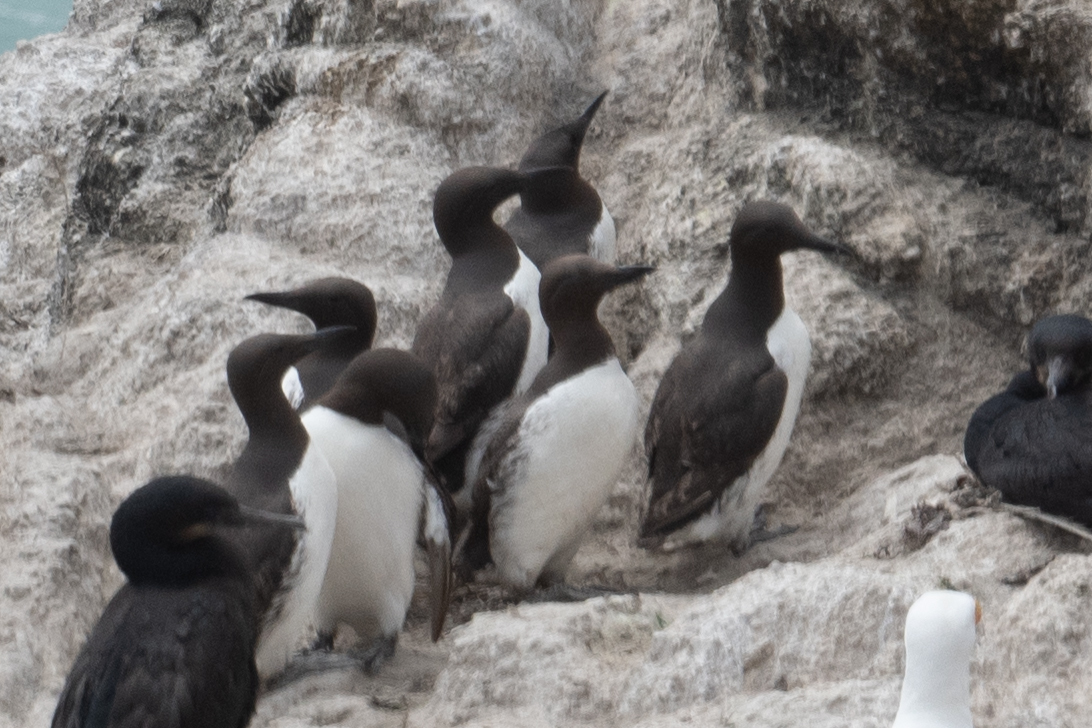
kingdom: Animalia
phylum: Chordata
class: Aves
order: Charadriiformes
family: Alcidae
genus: Uria
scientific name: Uria aalge
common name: Common murre
